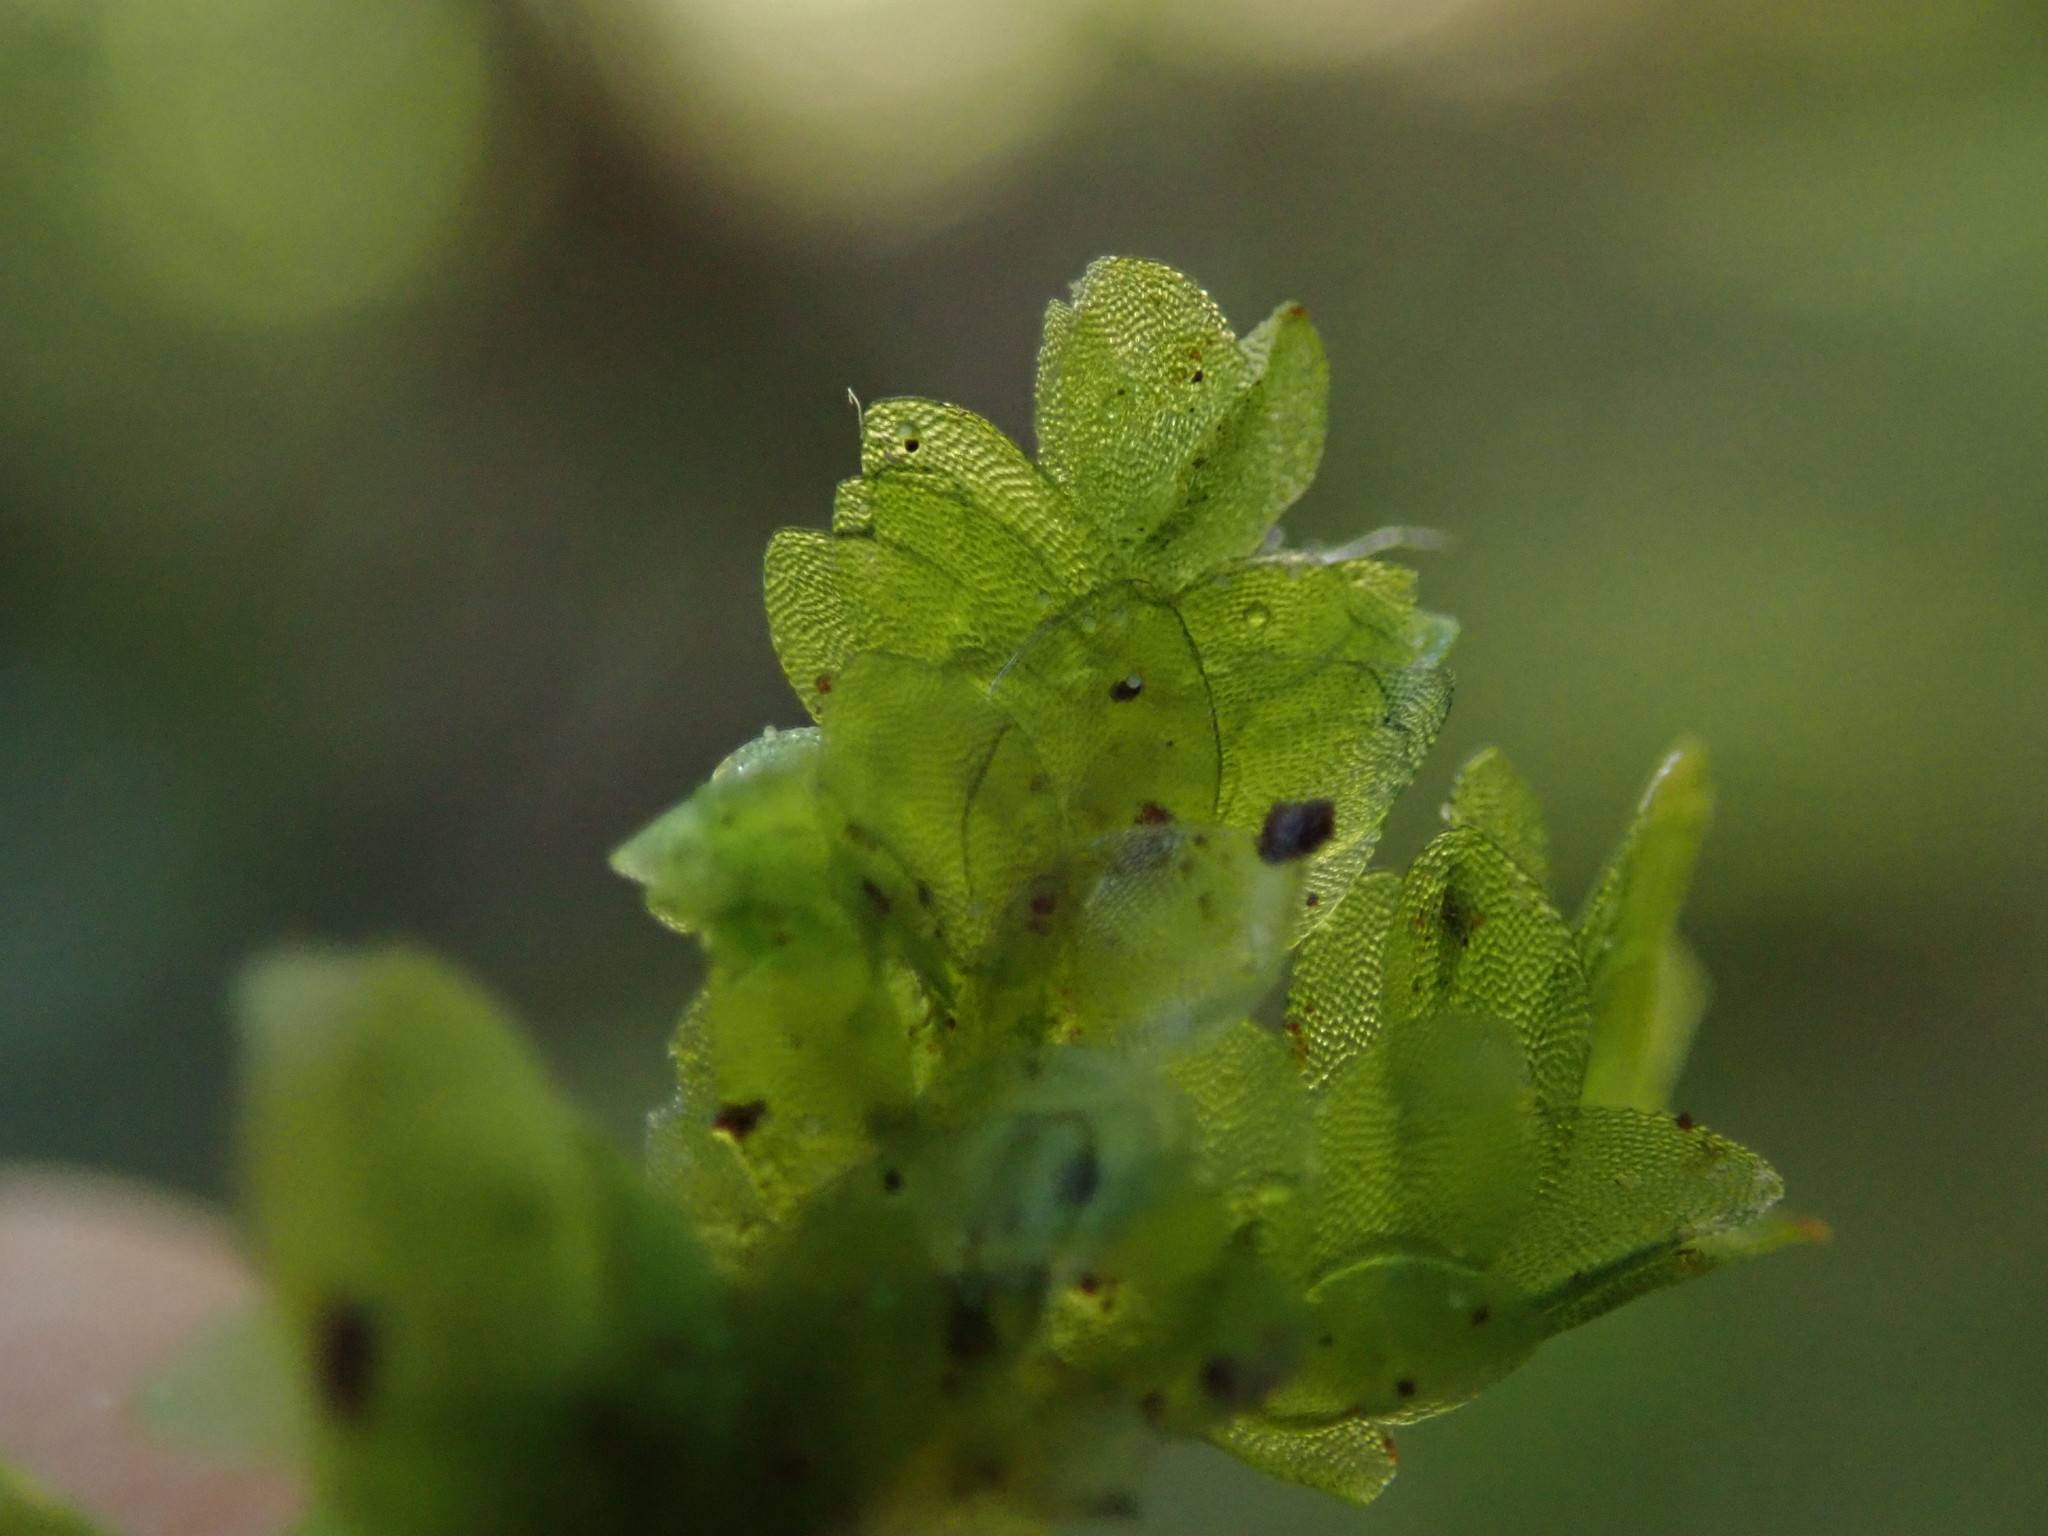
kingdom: Plantae
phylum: Bryophyta
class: Bryopsida
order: Hookeriales
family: Hookeriaceae
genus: Hookeria
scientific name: Hookeria lucens
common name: Shining hookeria
